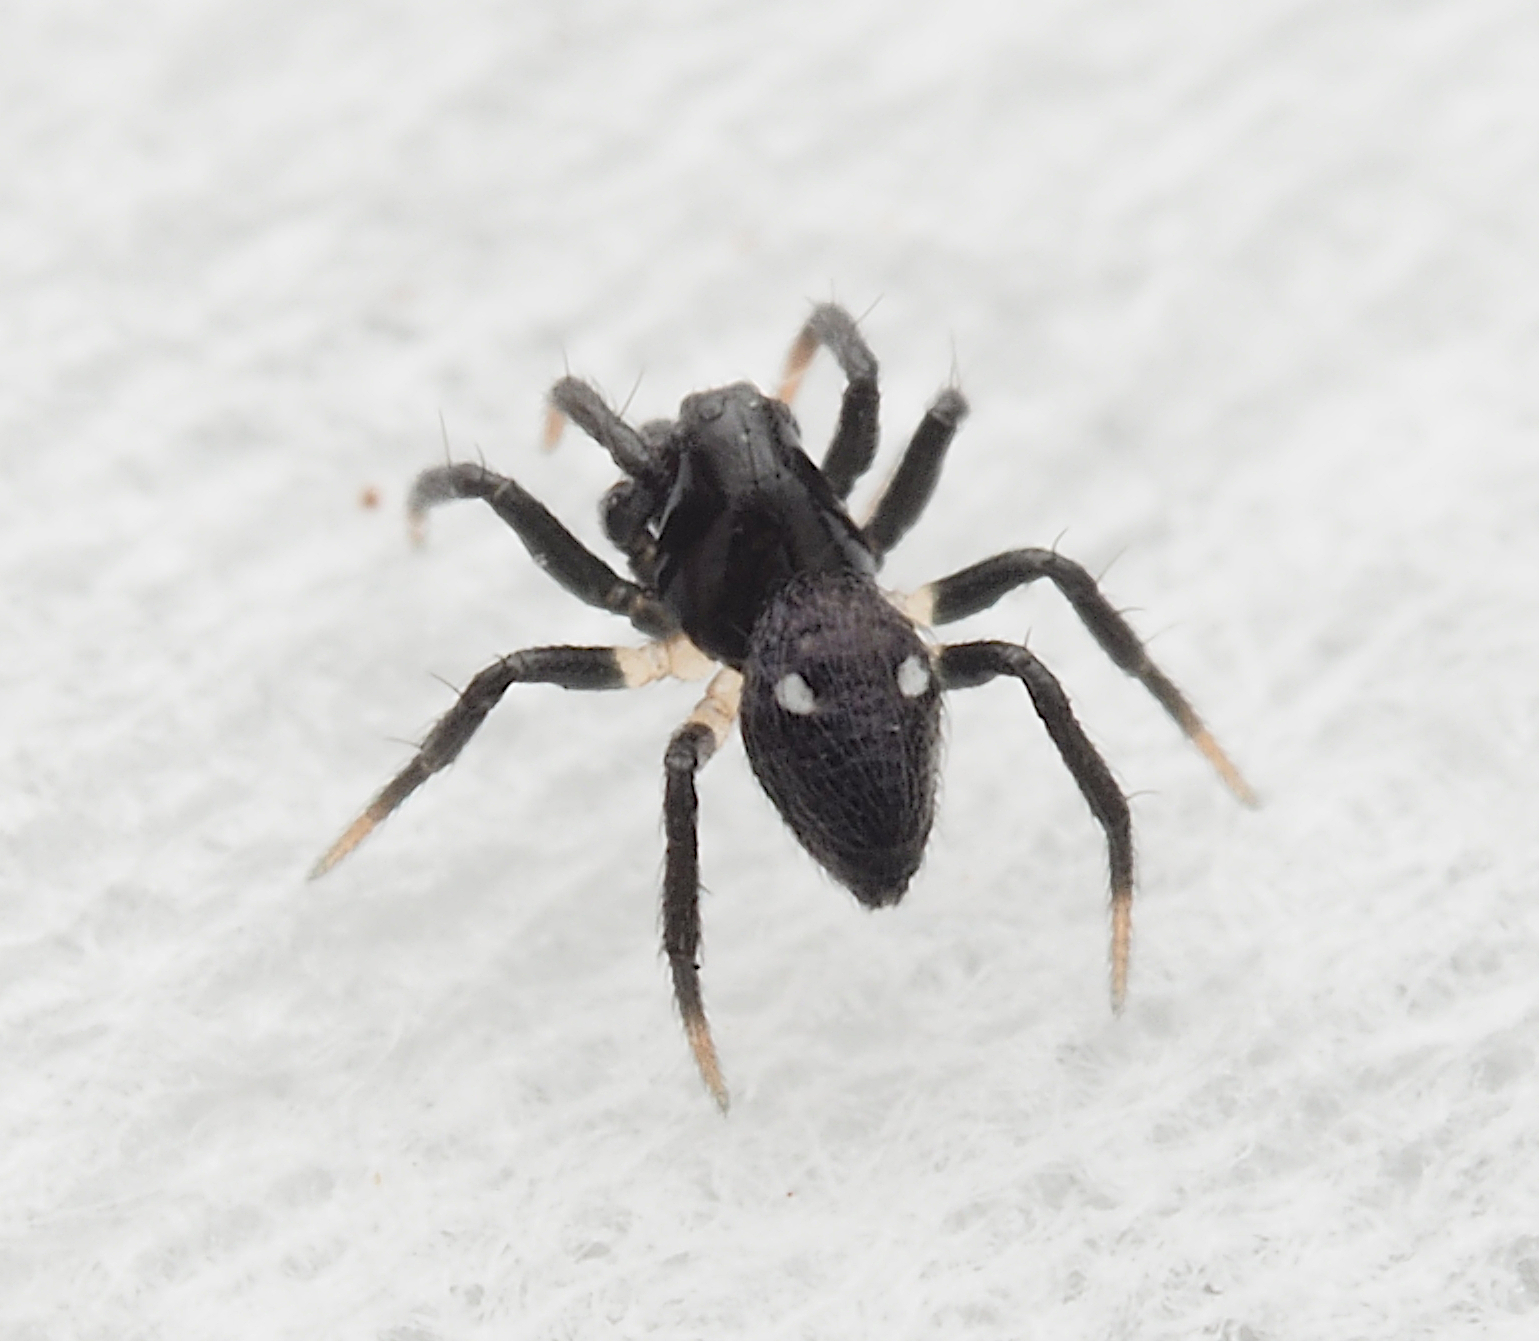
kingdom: Animalia
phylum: Arthropoda
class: Arachnida
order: Araneae
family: Theridiidae
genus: Argyrodes
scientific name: Argyrodes binotatus
